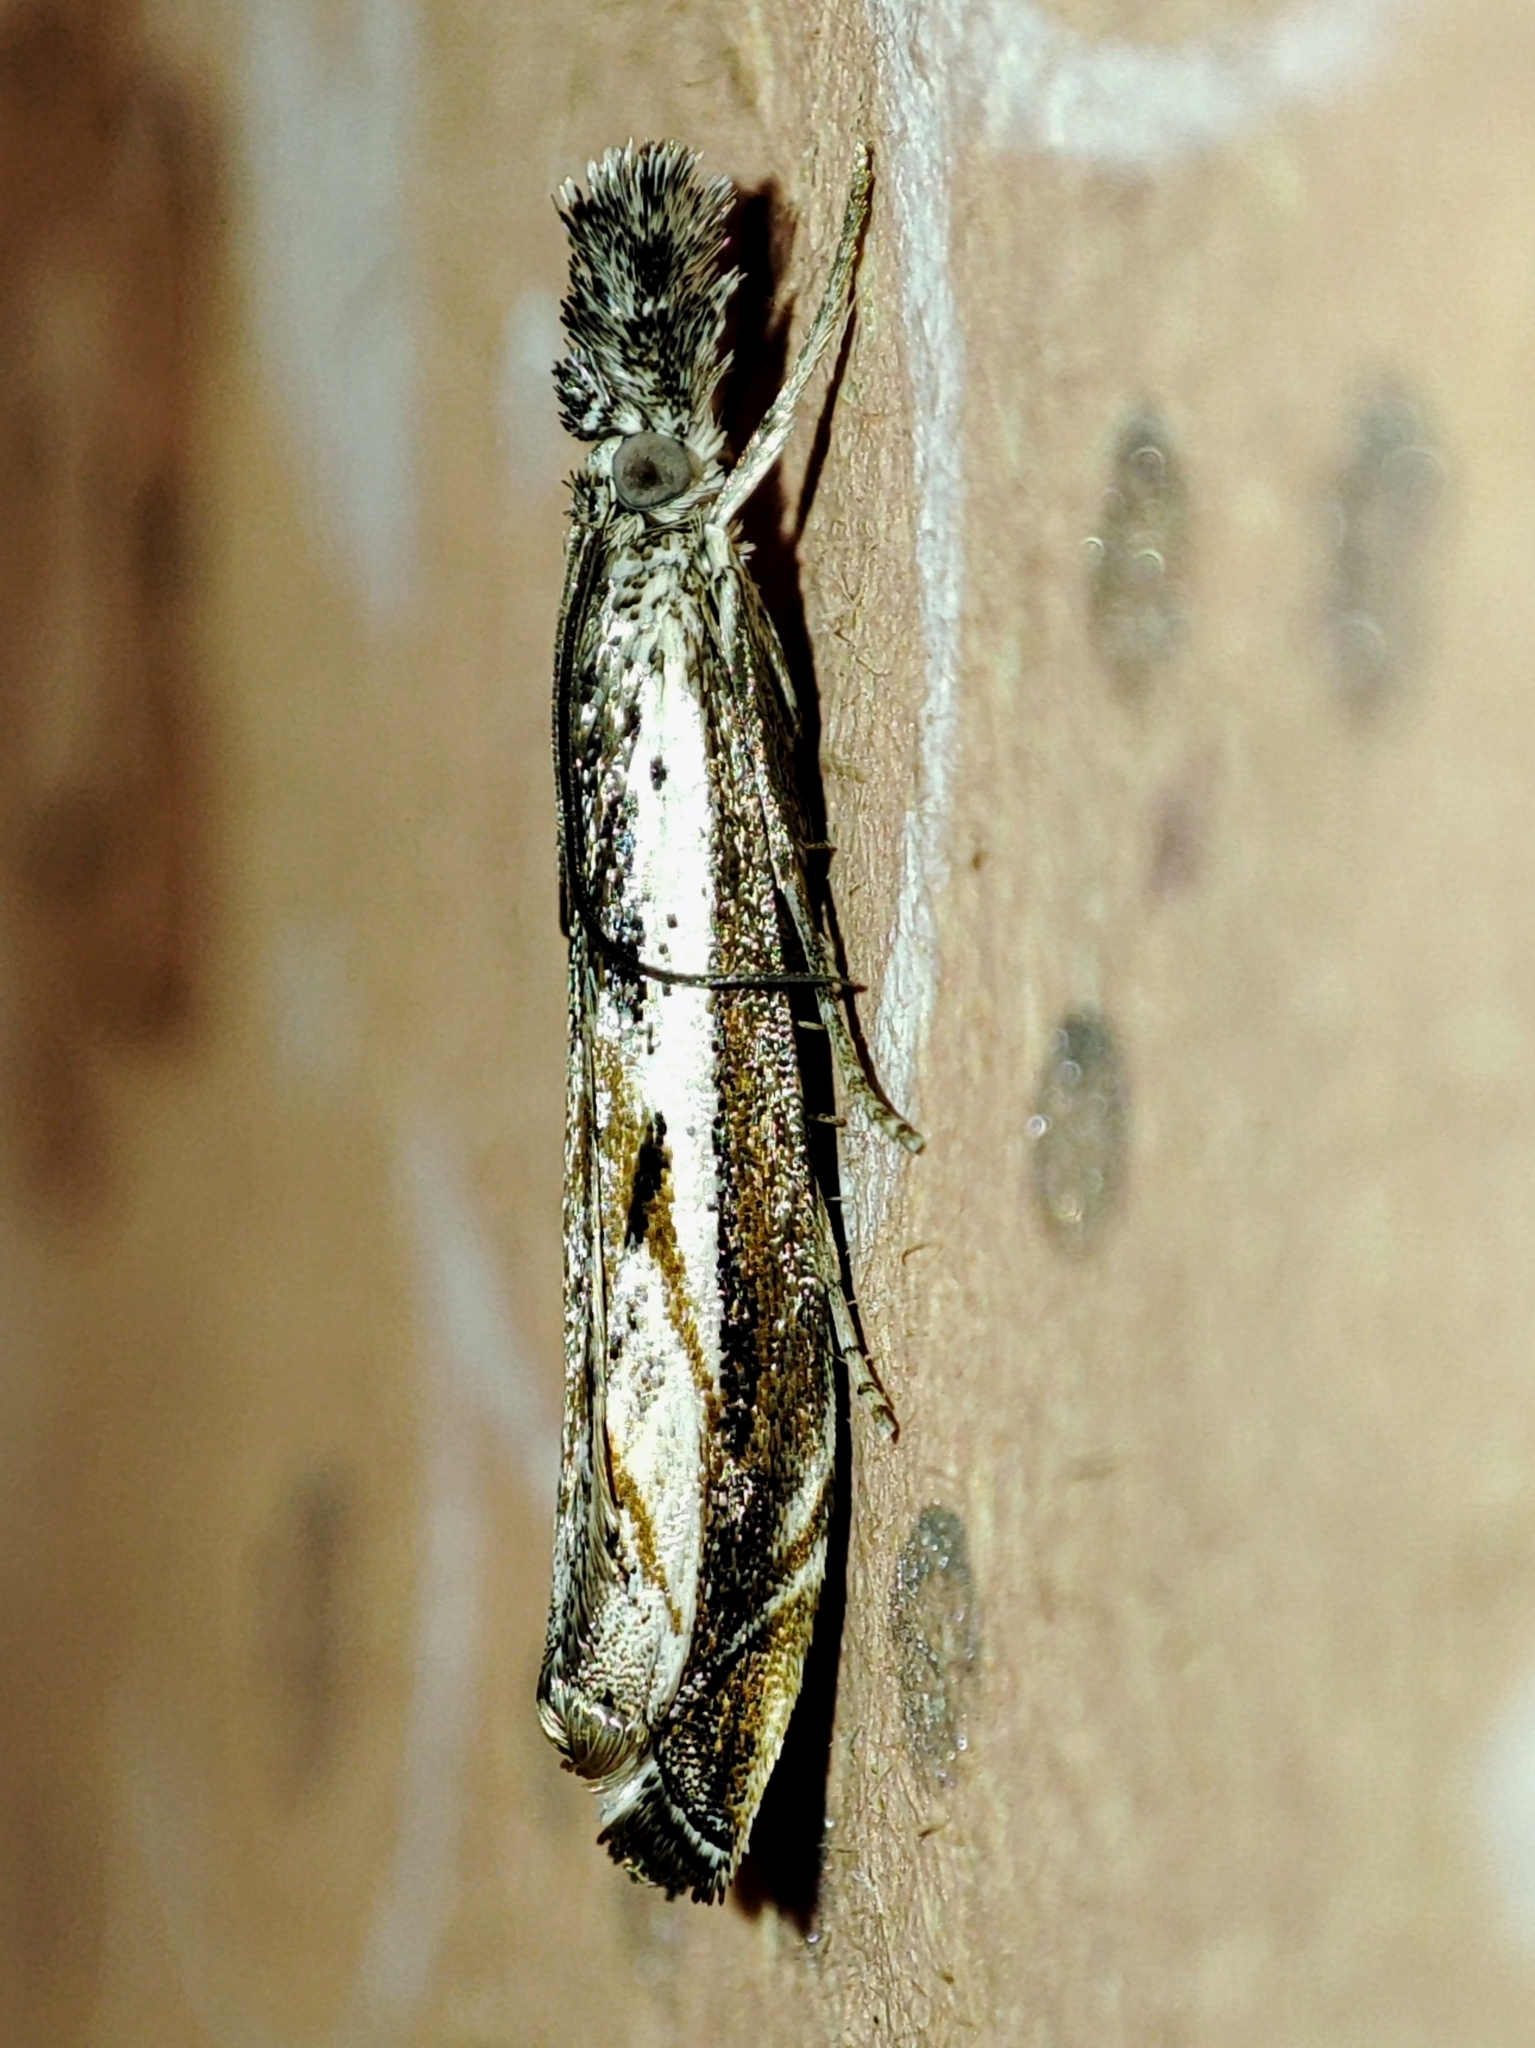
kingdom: Animalia
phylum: Arthropoda
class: Insecta
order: Lepidoptera
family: Crambidae
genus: Platytes
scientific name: Platytes alpinella
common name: Hook-tipped grass-veneer
